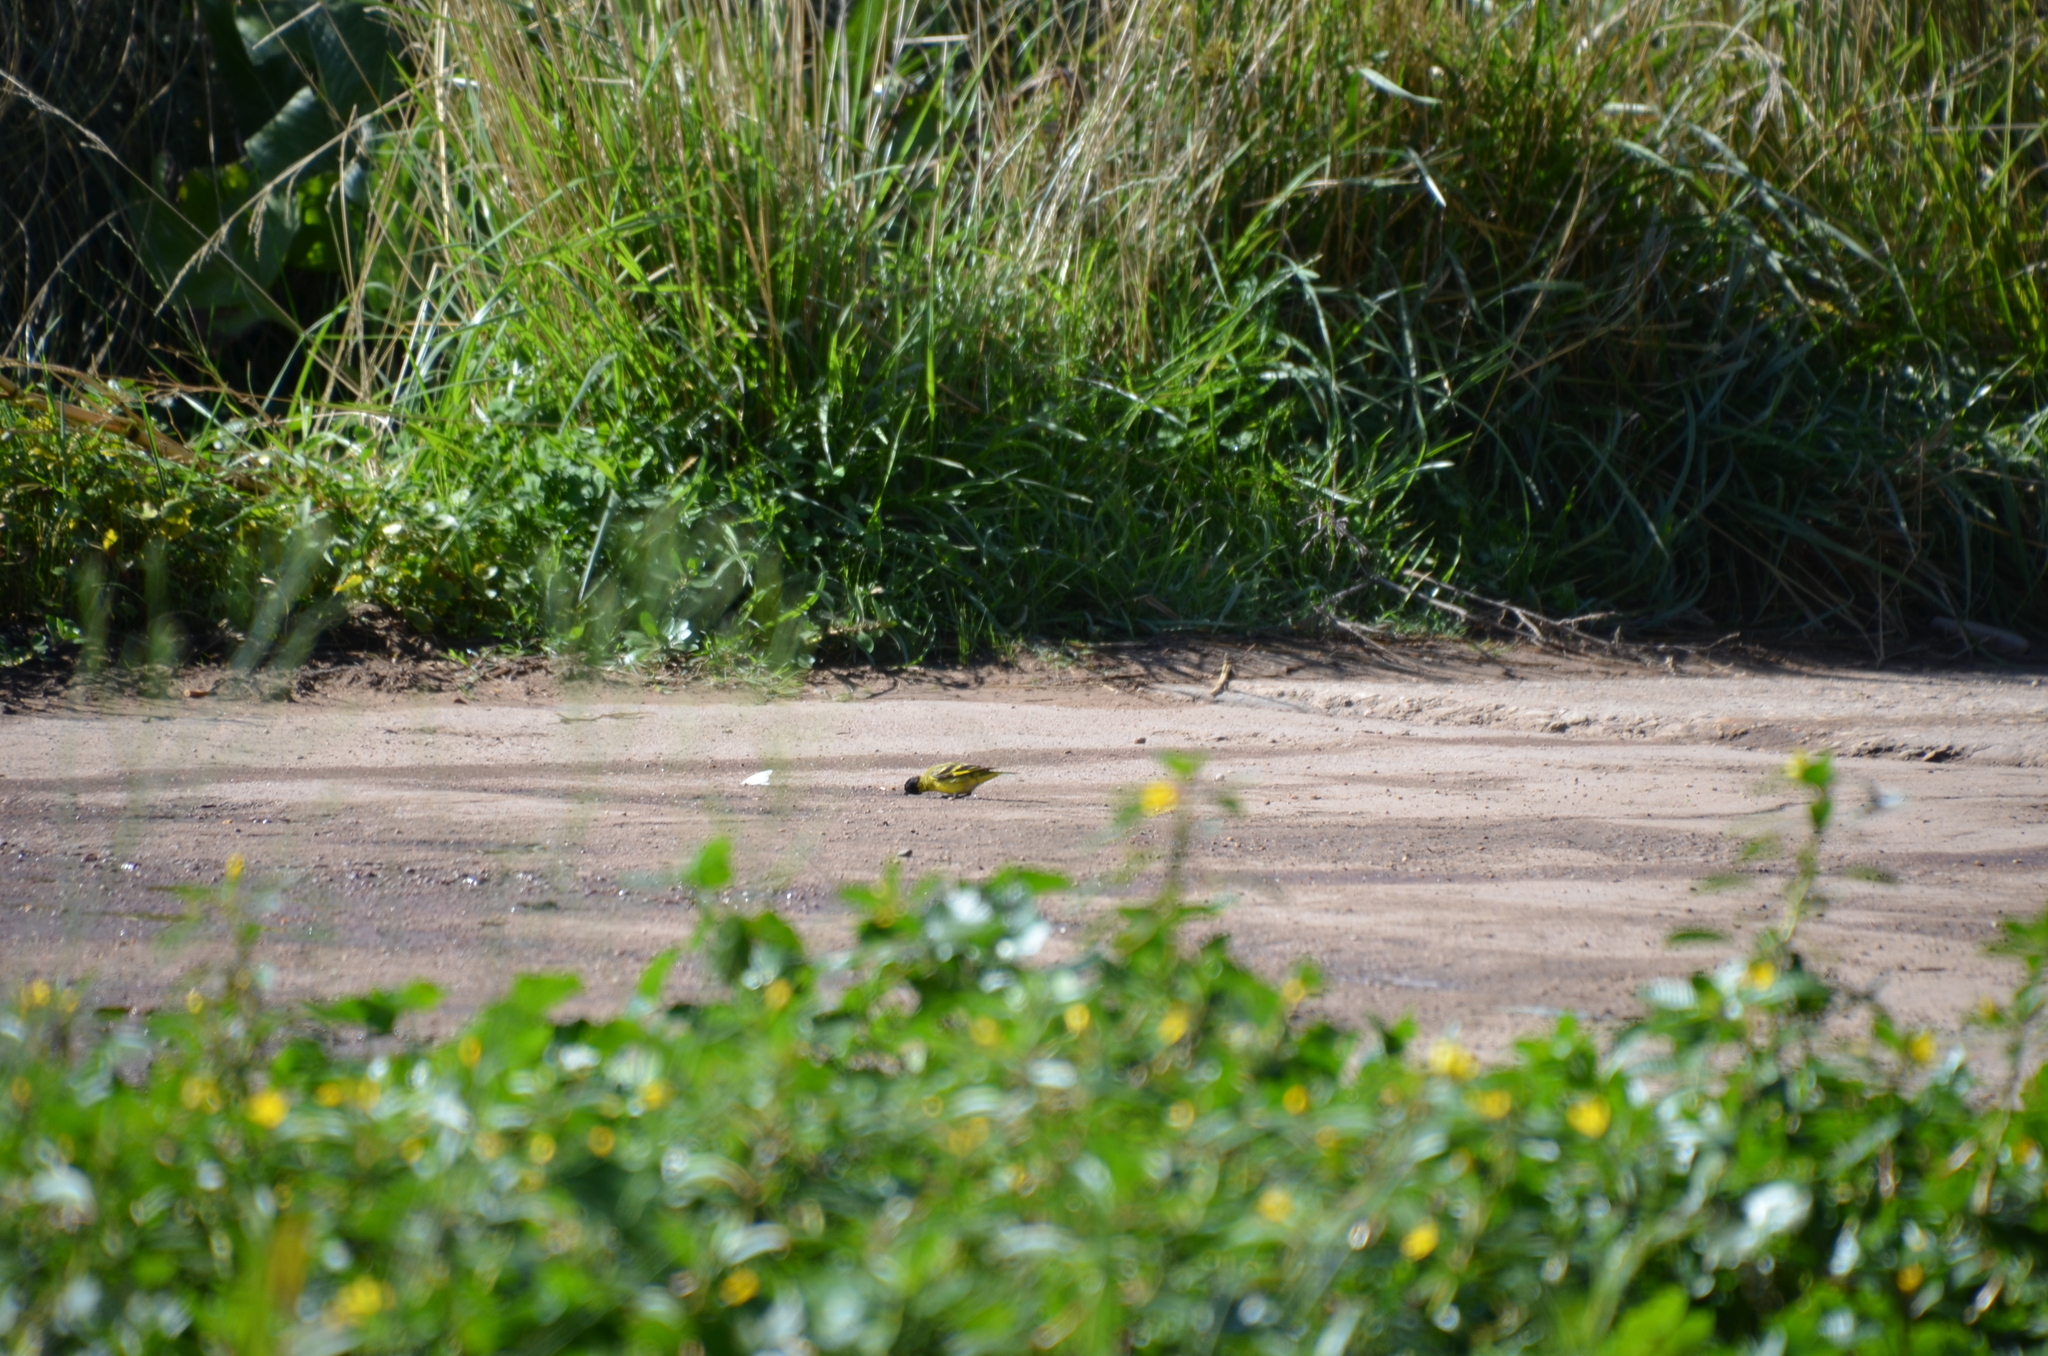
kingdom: Animalia
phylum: Chordata
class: Aves
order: Passeriformes
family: Fringillidae
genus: Spinus
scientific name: Spinus magellanicus
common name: Hooded siskin
